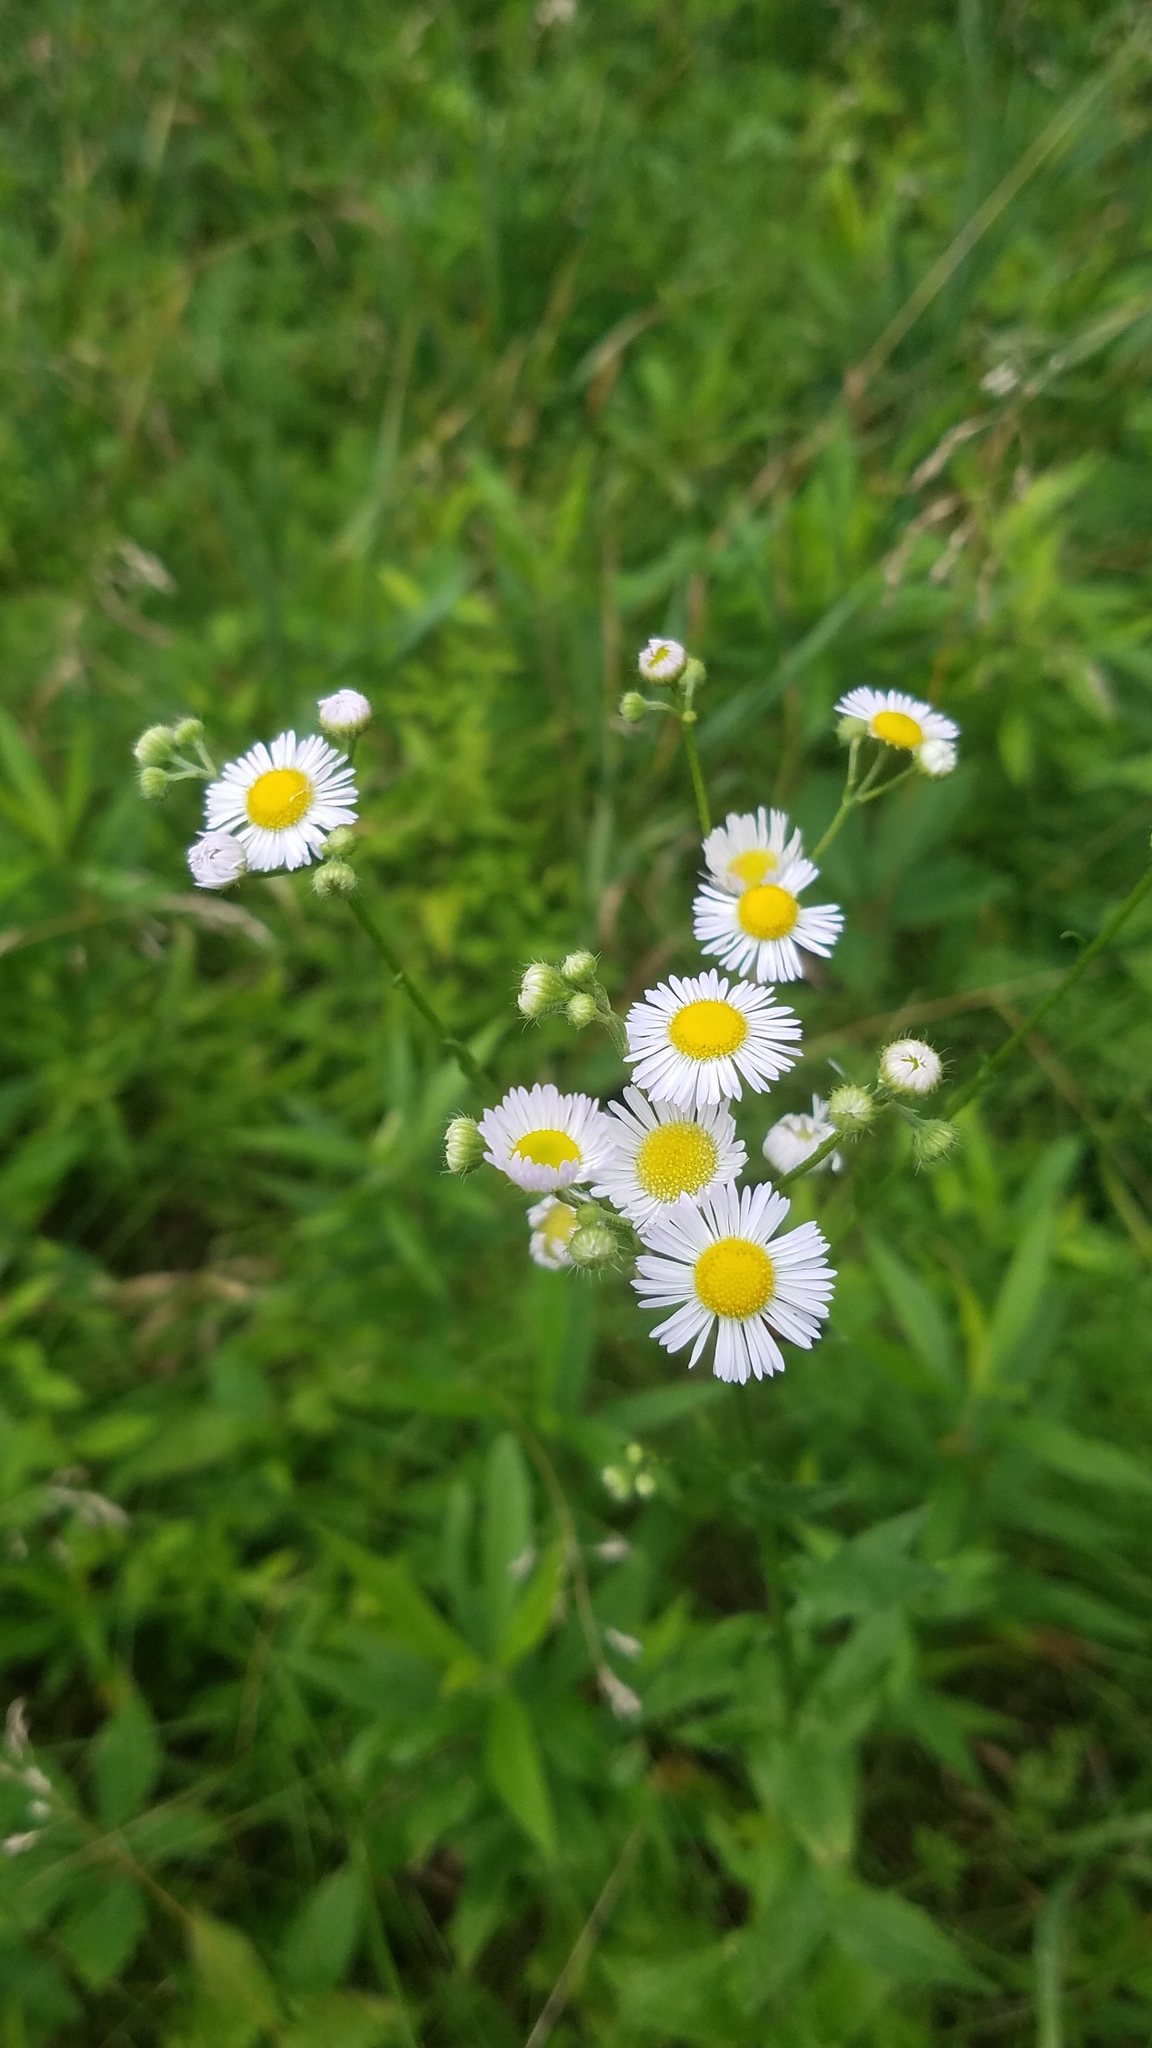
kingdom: Plantae
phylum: Tracheophyta
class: Magnoliopsida
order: Asterales
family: Asteraceae
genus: Erigeron
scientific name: Erigeron strigosus
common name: Common eastern fleabane
